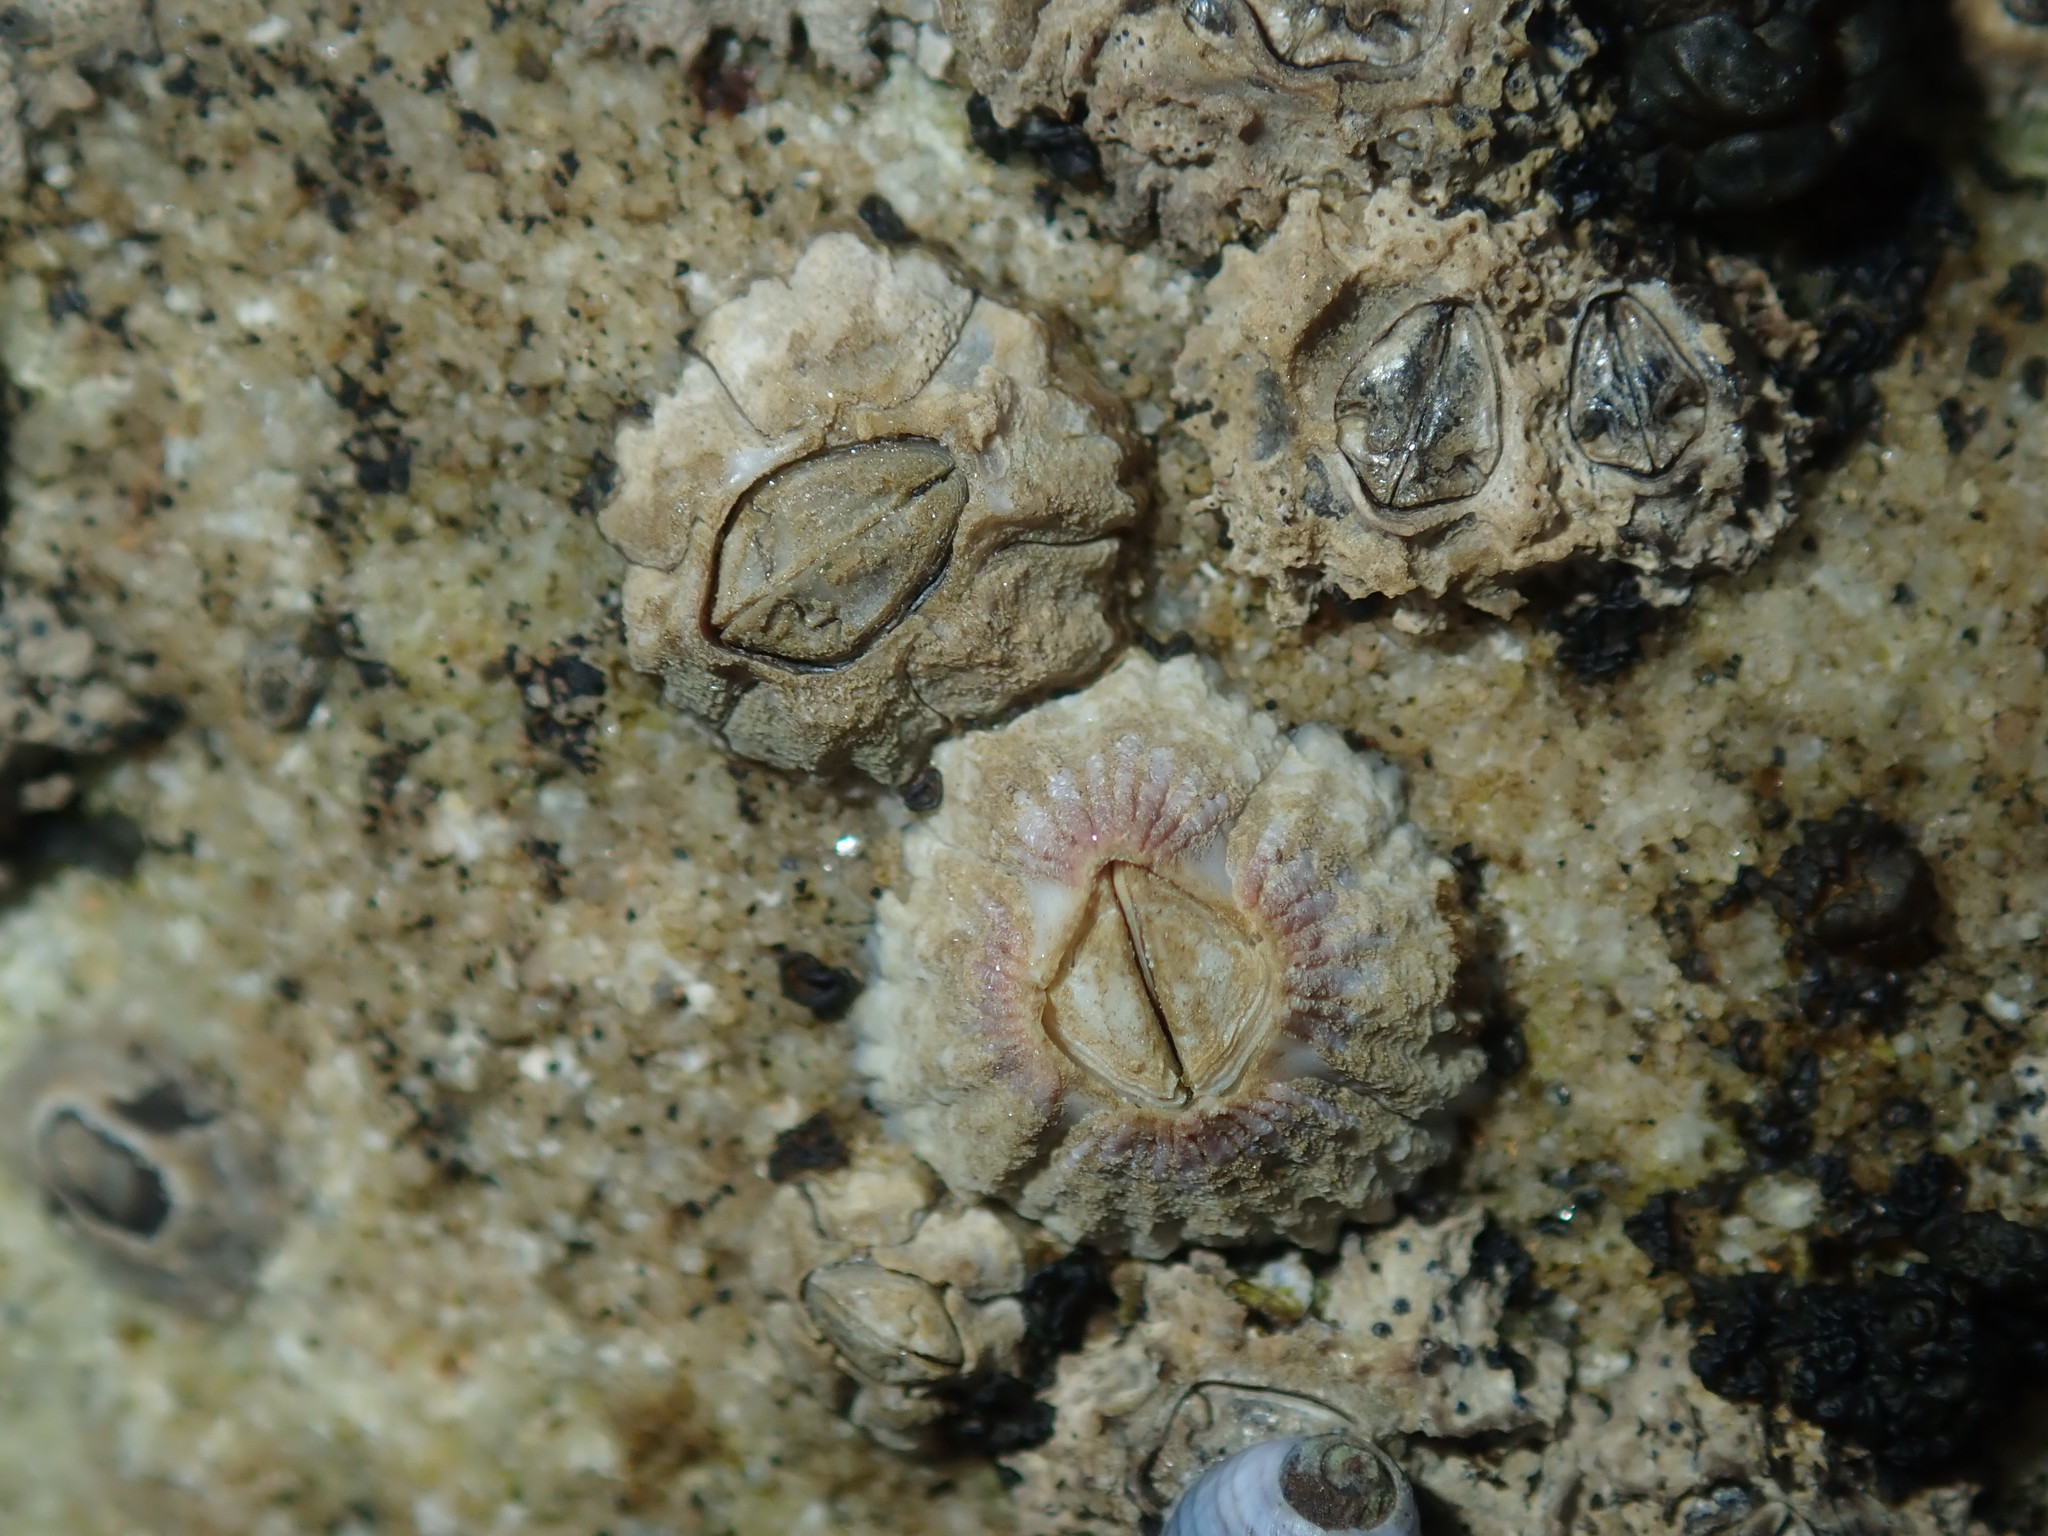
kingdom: Animalia
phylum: Arthropoda
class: Maxillopoda
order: Sessilia
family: Tetraclitidae
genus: Tesseropora
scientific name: Tesseropora rosea
